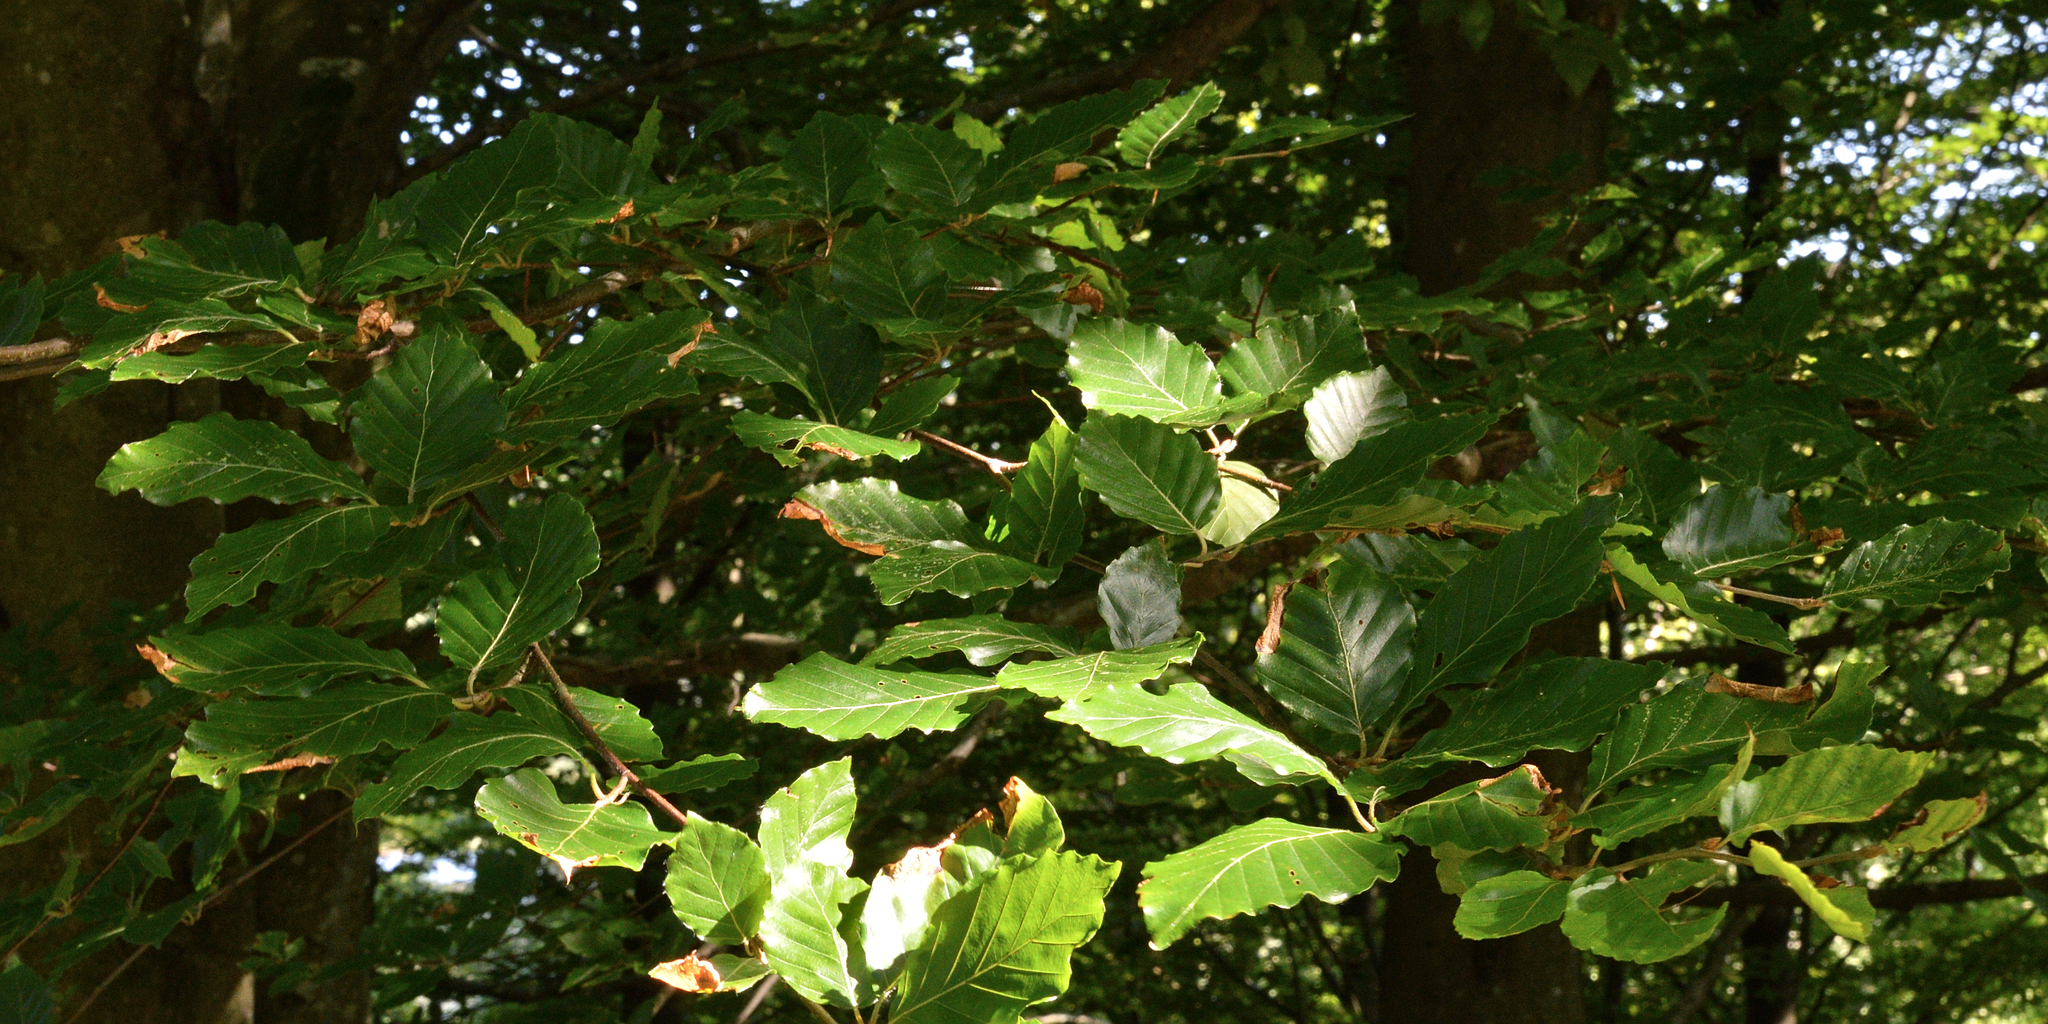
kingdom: Plantae
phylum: Tracheophyta
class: Magnoliopsida
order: Fagales
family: Fagaceae
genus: Fagus
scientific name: Fagus sylvatica
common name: Beech
